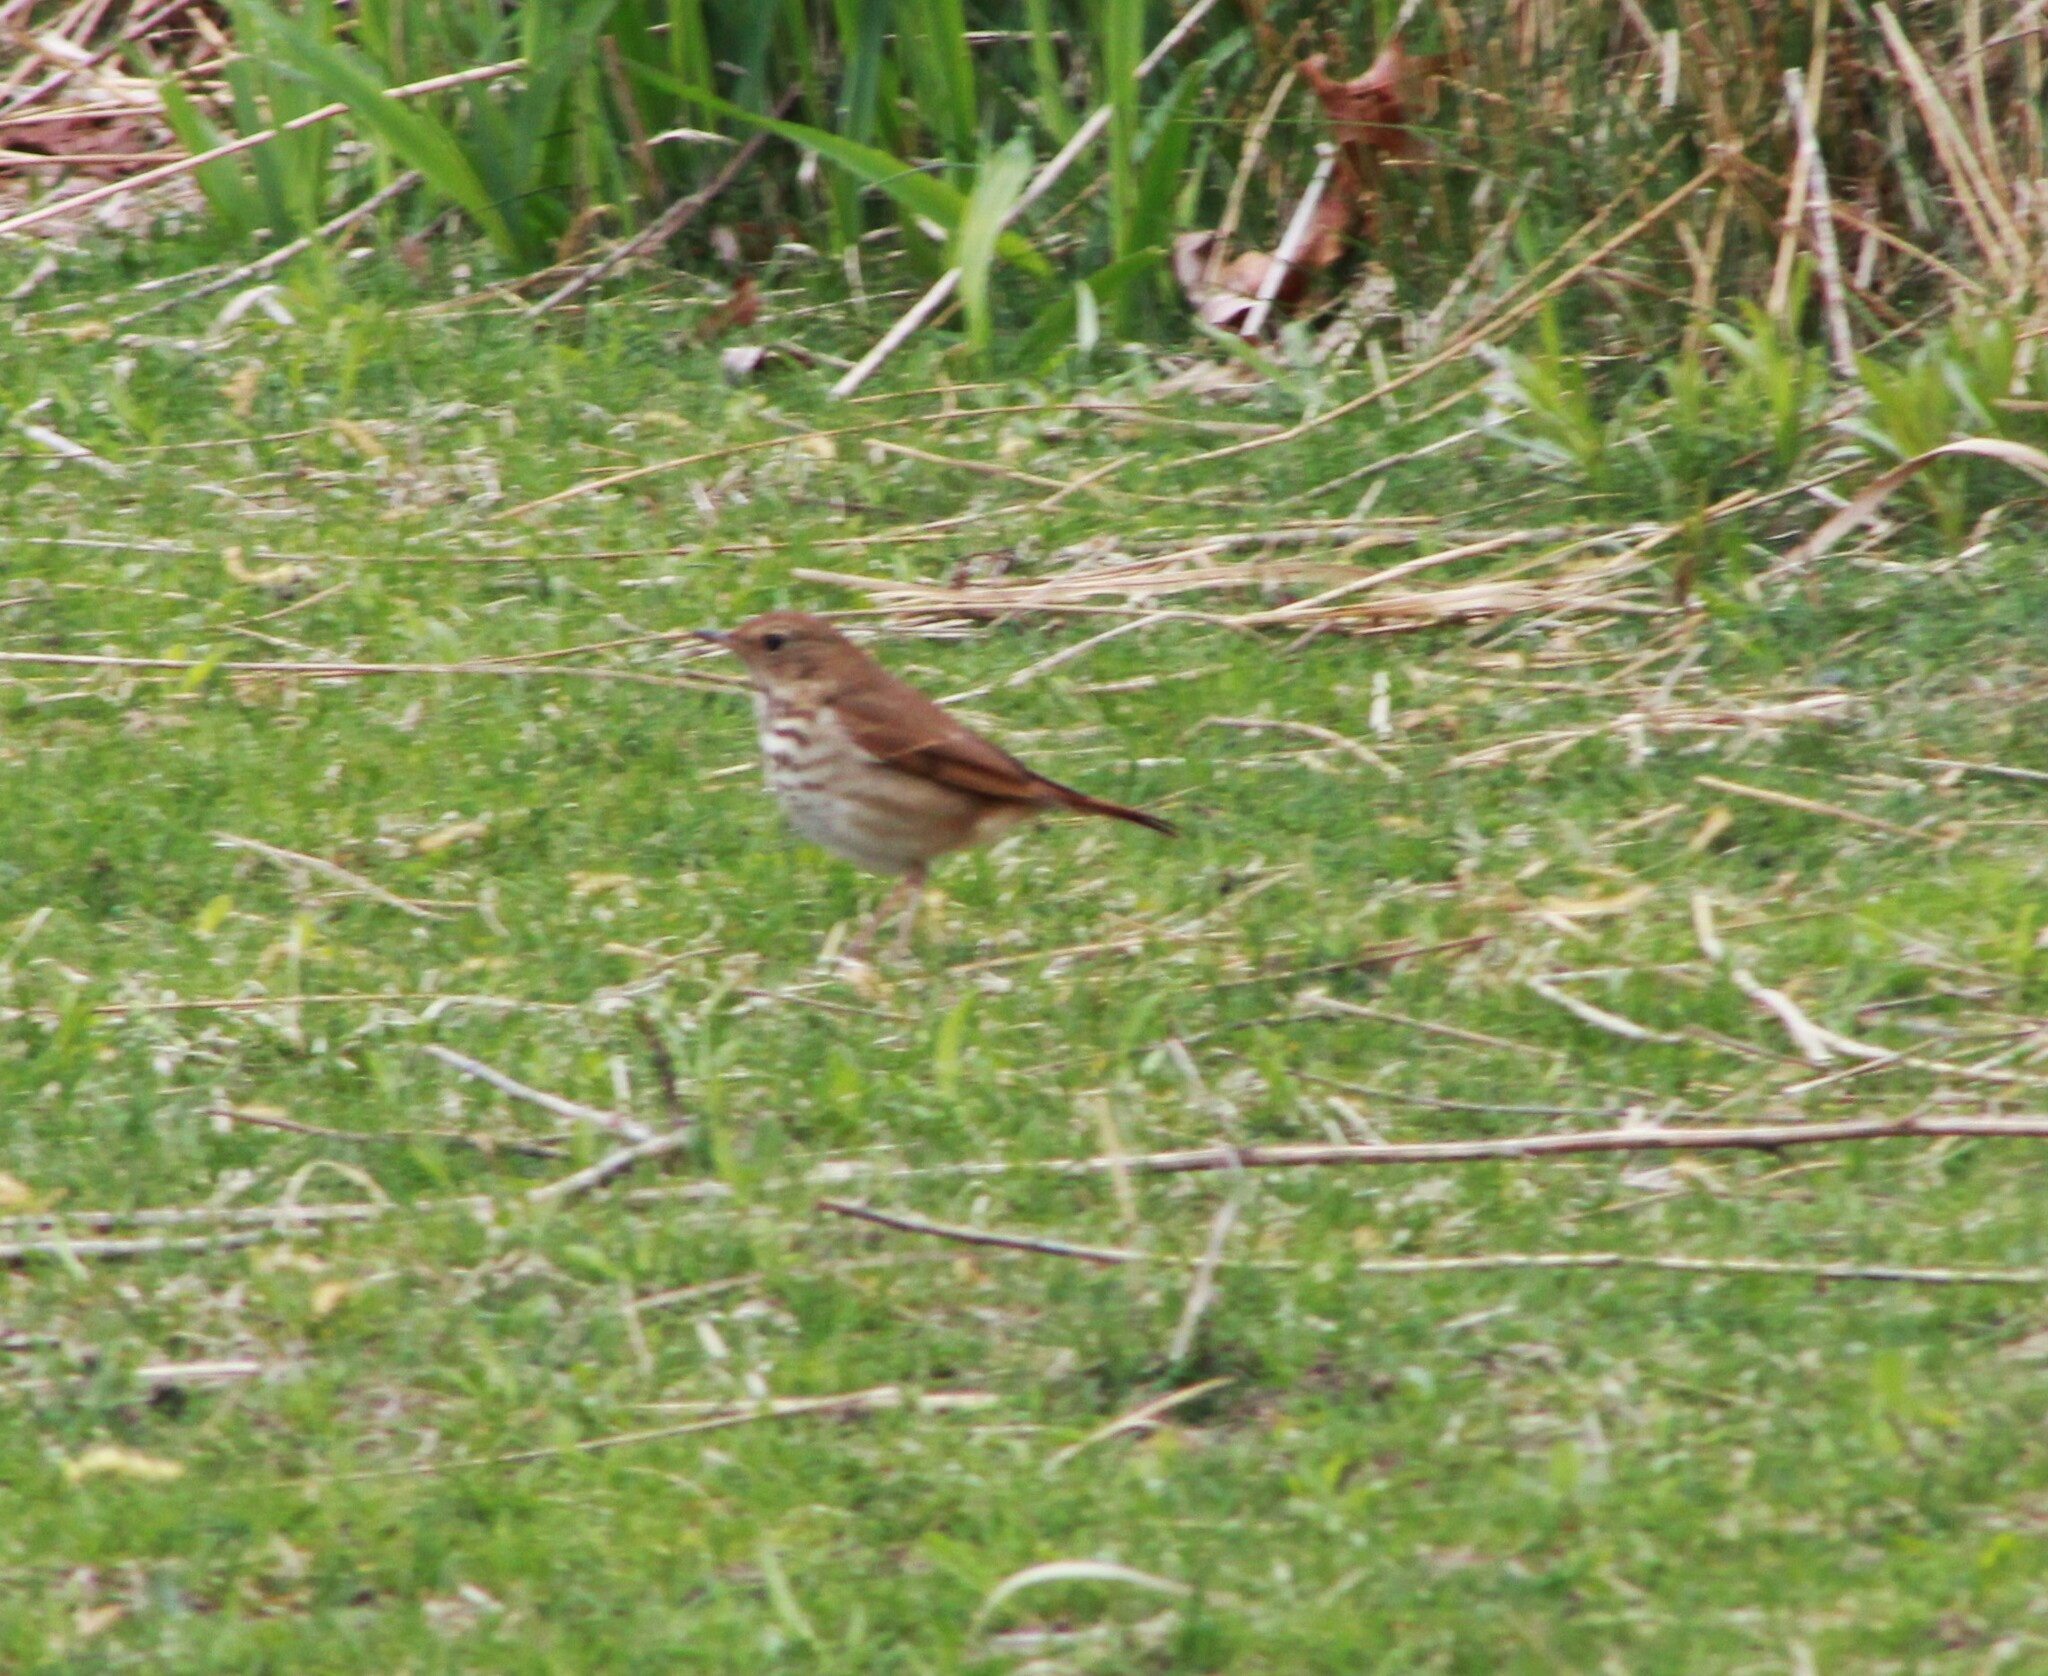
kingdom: Animalia
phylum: Chordata
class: Aves
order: Passeriformes
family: Turdidae
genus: Catharus
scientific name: Catharus guttatus
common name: Hermit thrush
